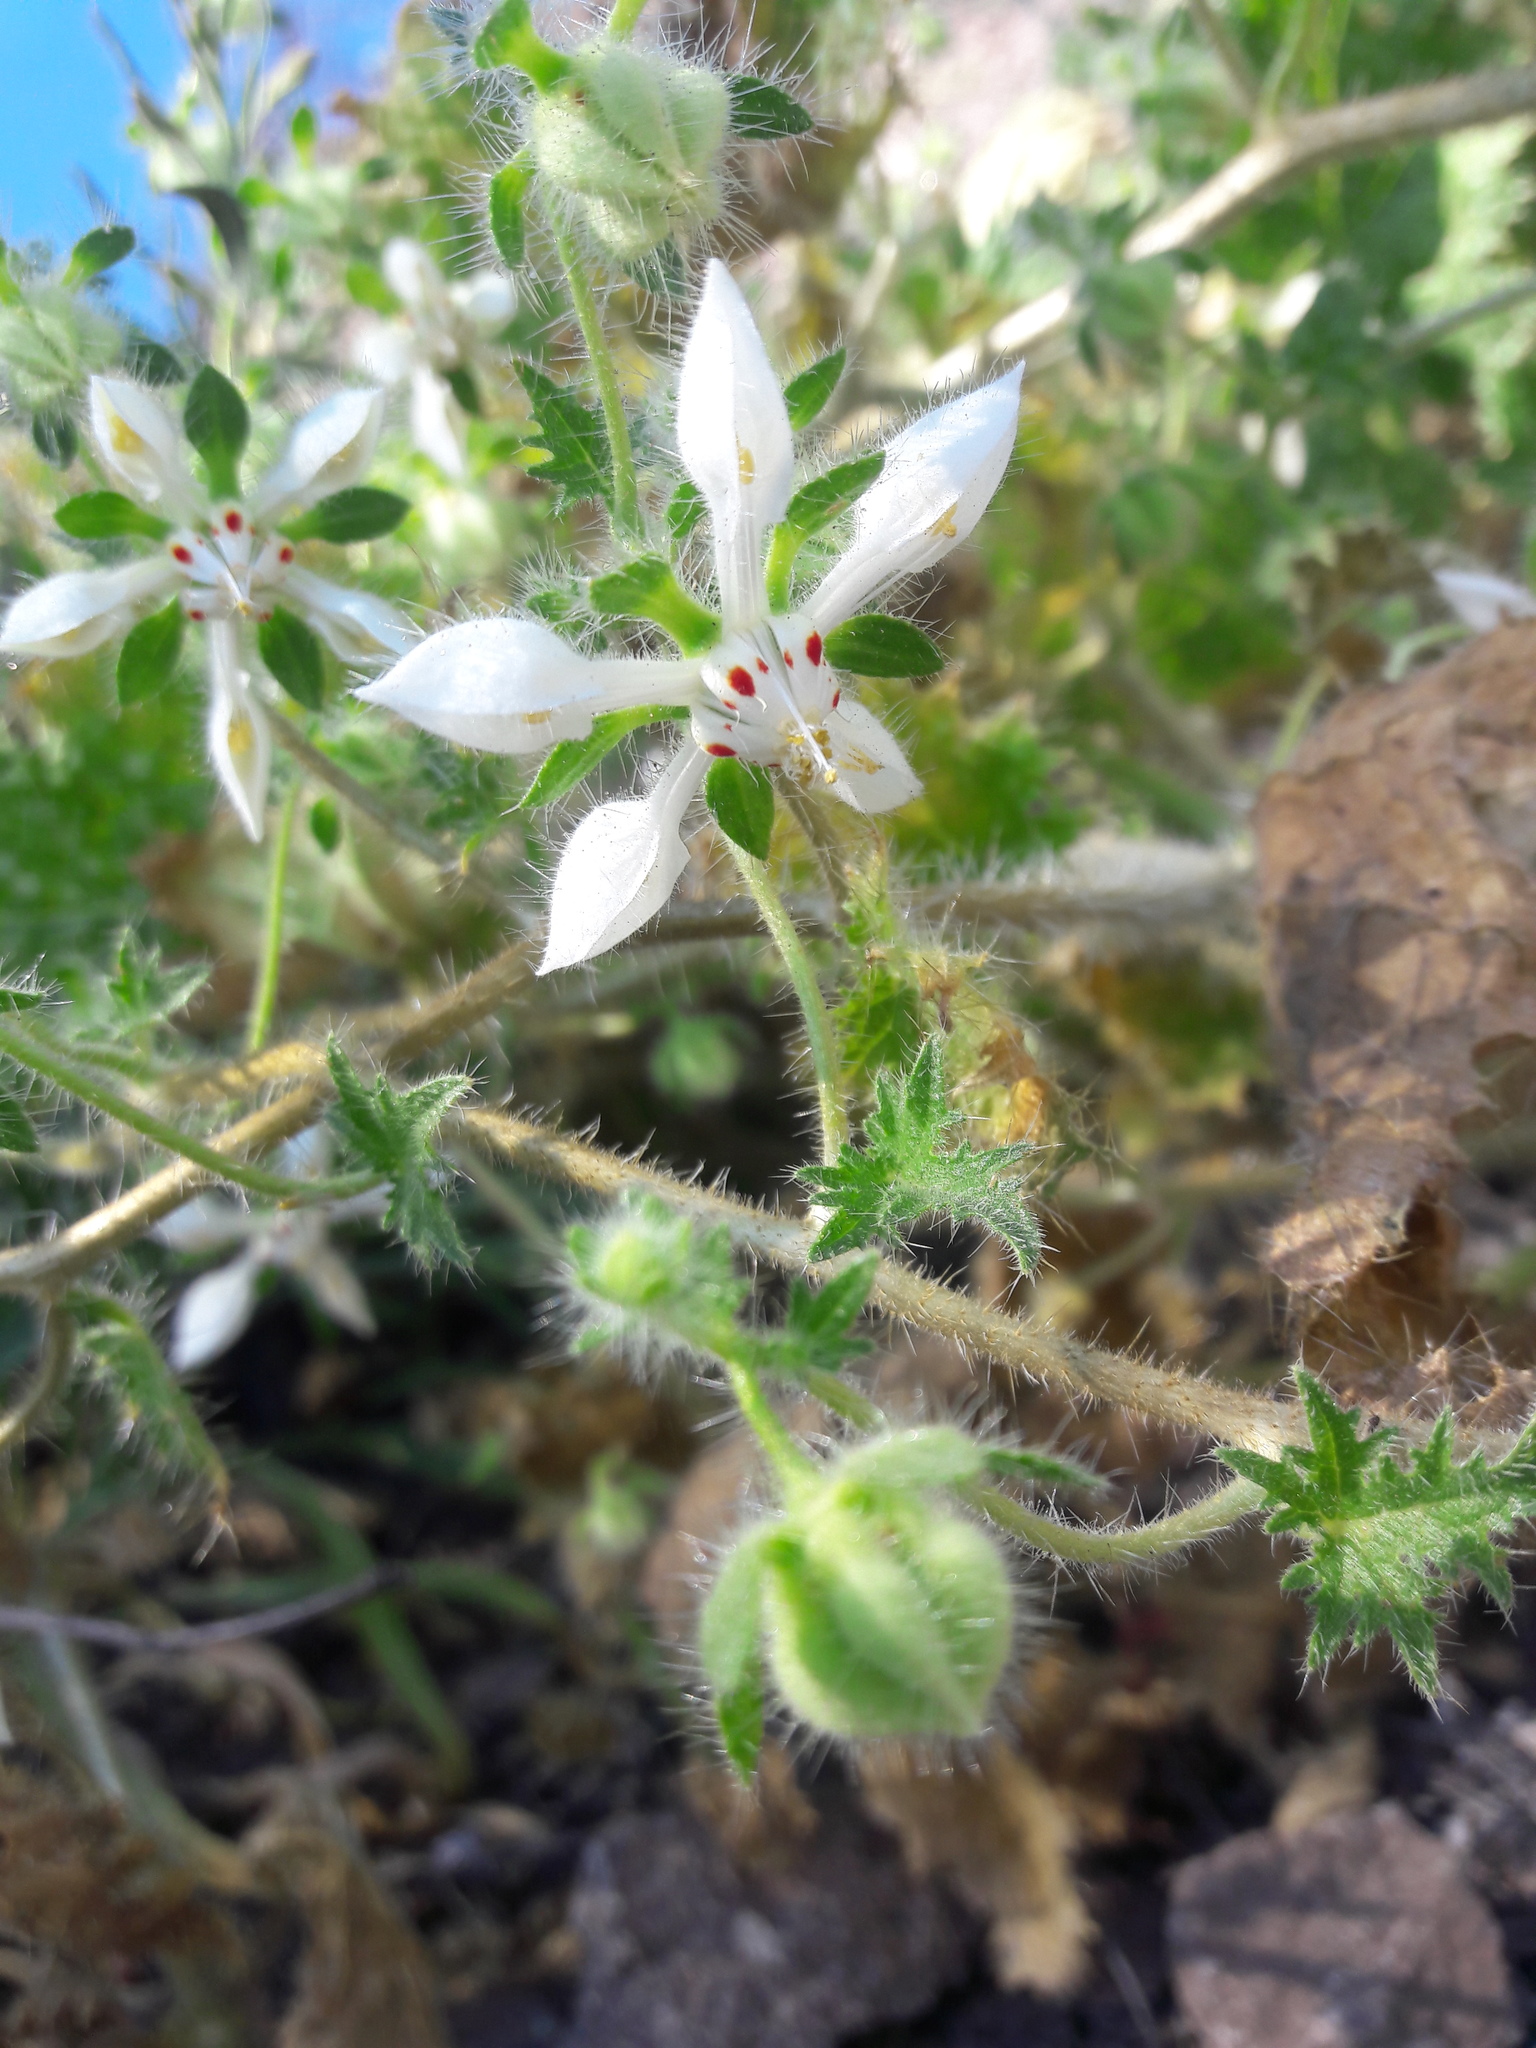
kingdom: Plantae
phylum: Tracheophyta
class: Magnoliopsida
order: Cornales
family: Loasaceae
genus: Loasa
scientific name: Loasa floribunda
